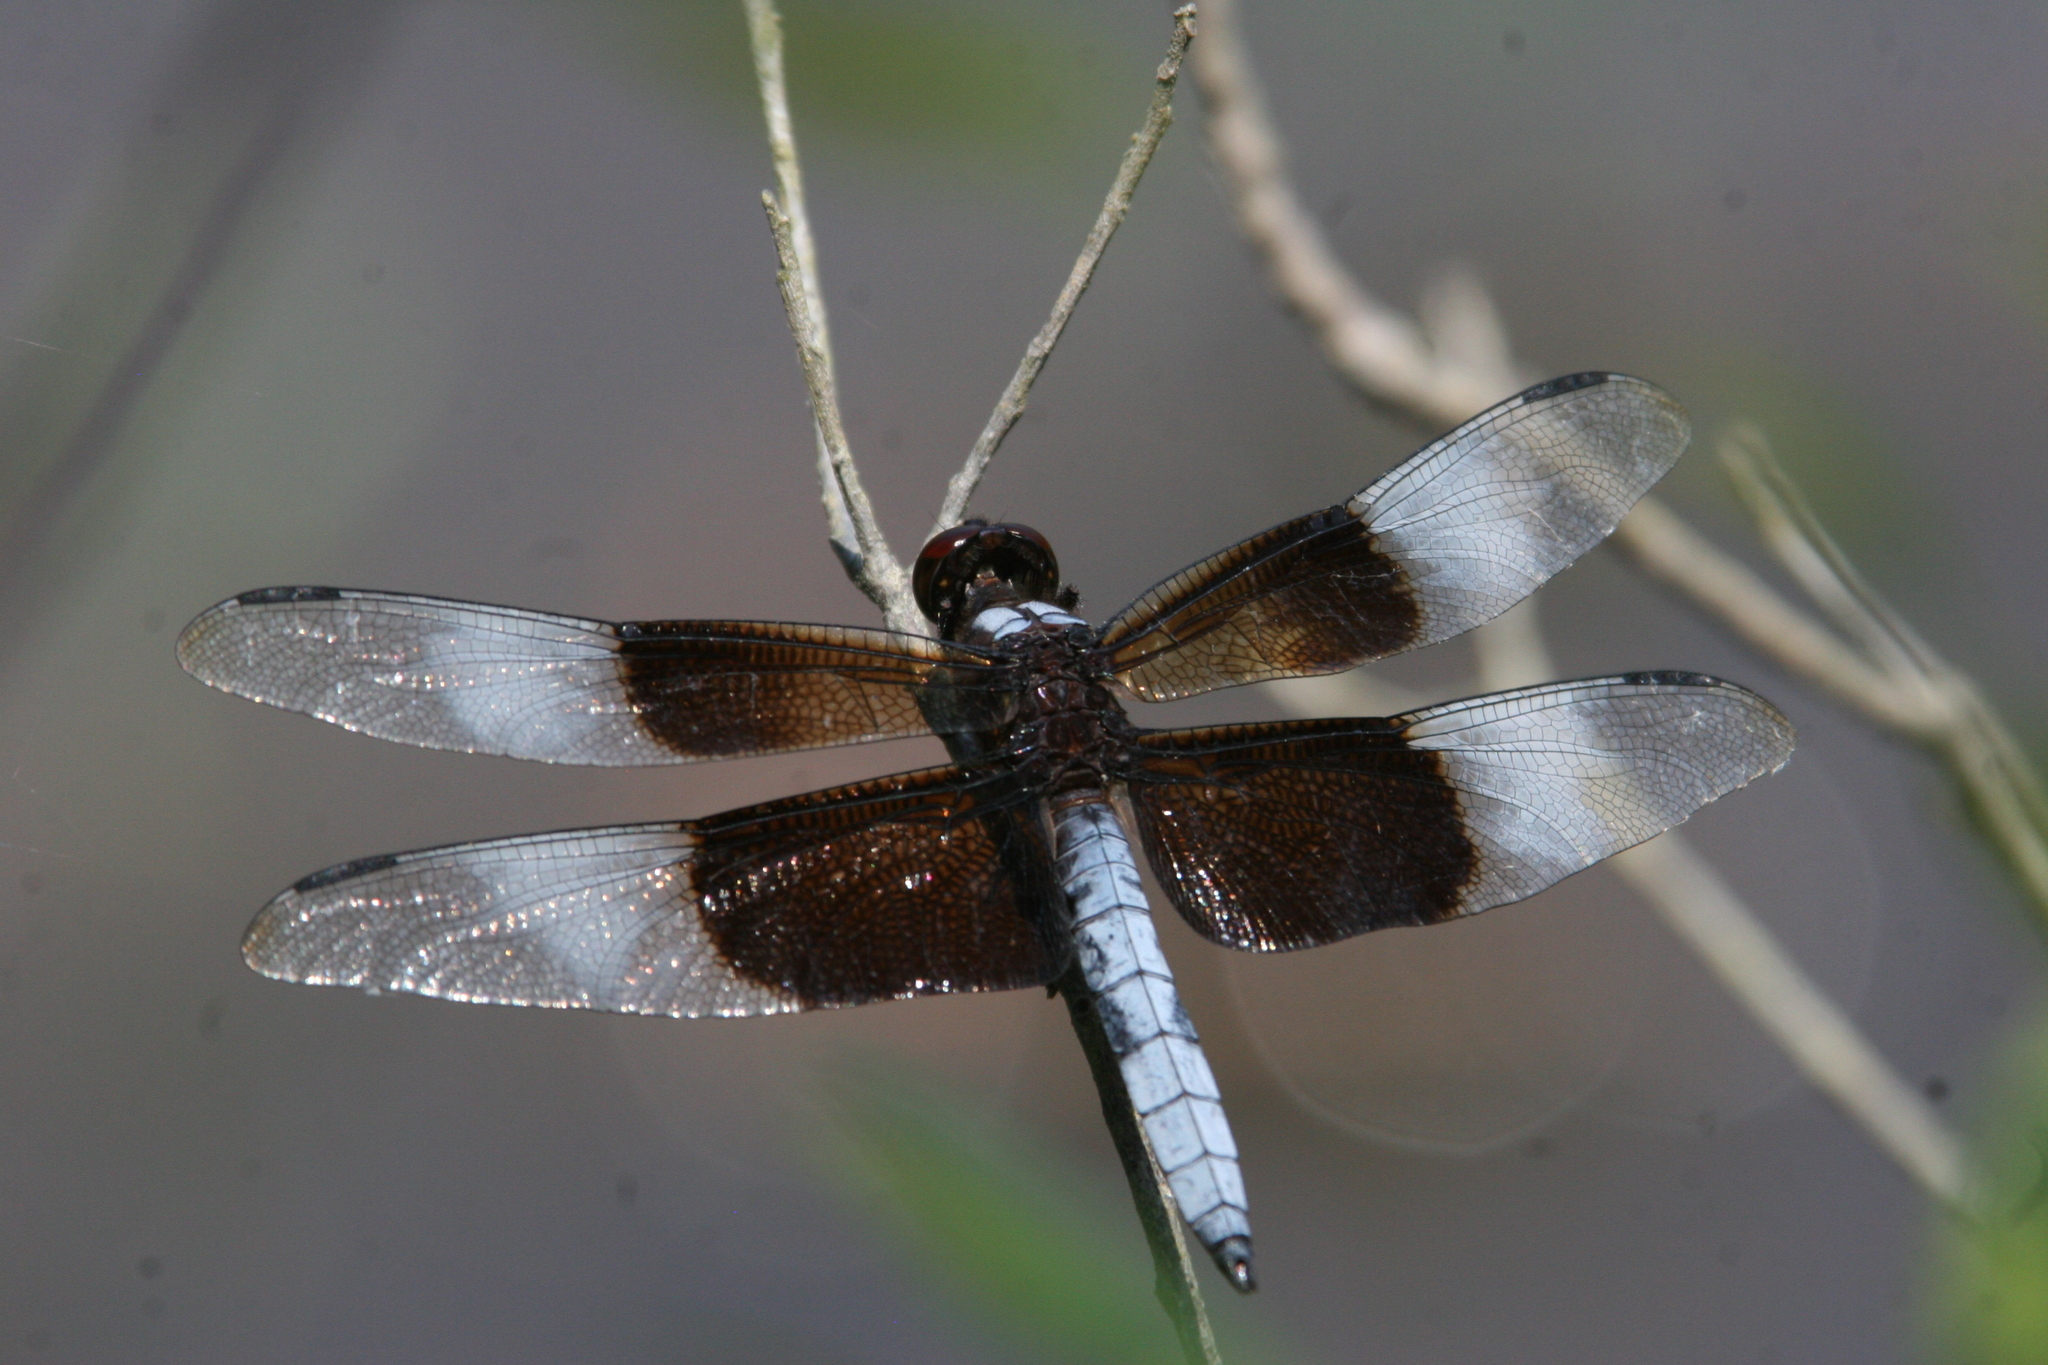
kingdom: Animalia
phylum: Arthropoda
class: Insecta
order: Odonata
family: Libellulidae
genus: Libellula
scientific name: Libellula luctuosa
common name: Widow skimmer
